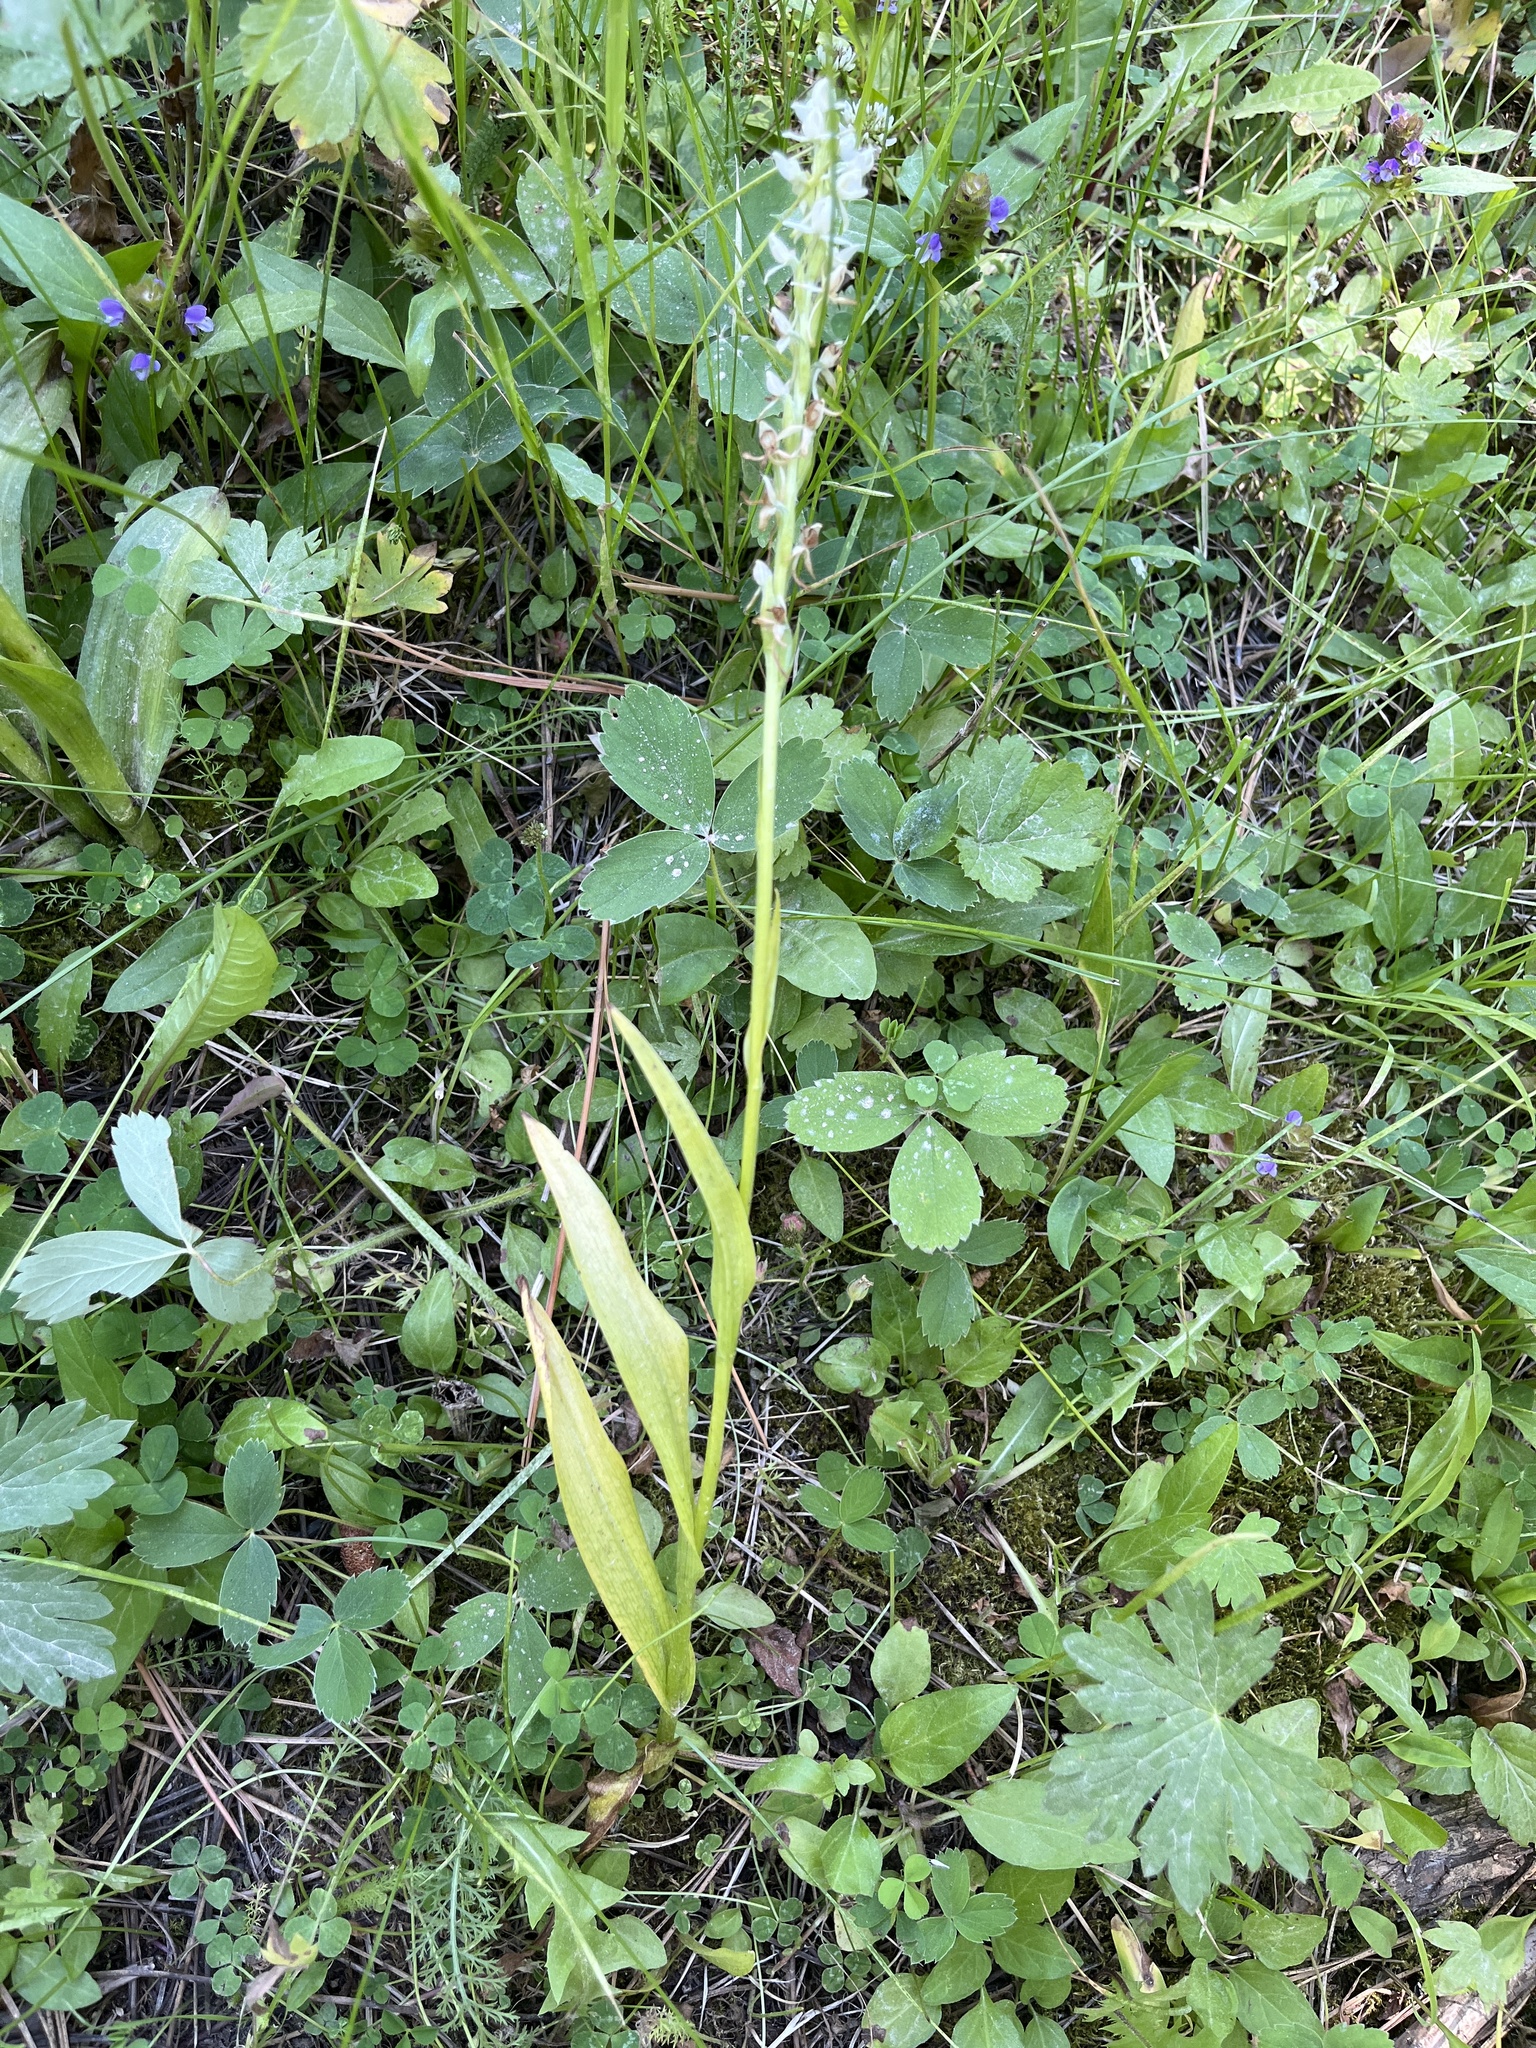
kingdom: Plantae
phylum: Tracheophyta
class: Liliopsida
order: Asparagales
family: Orchidaceae
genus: Platanthera
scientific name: Platanthera dilatata
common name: Bog candles
